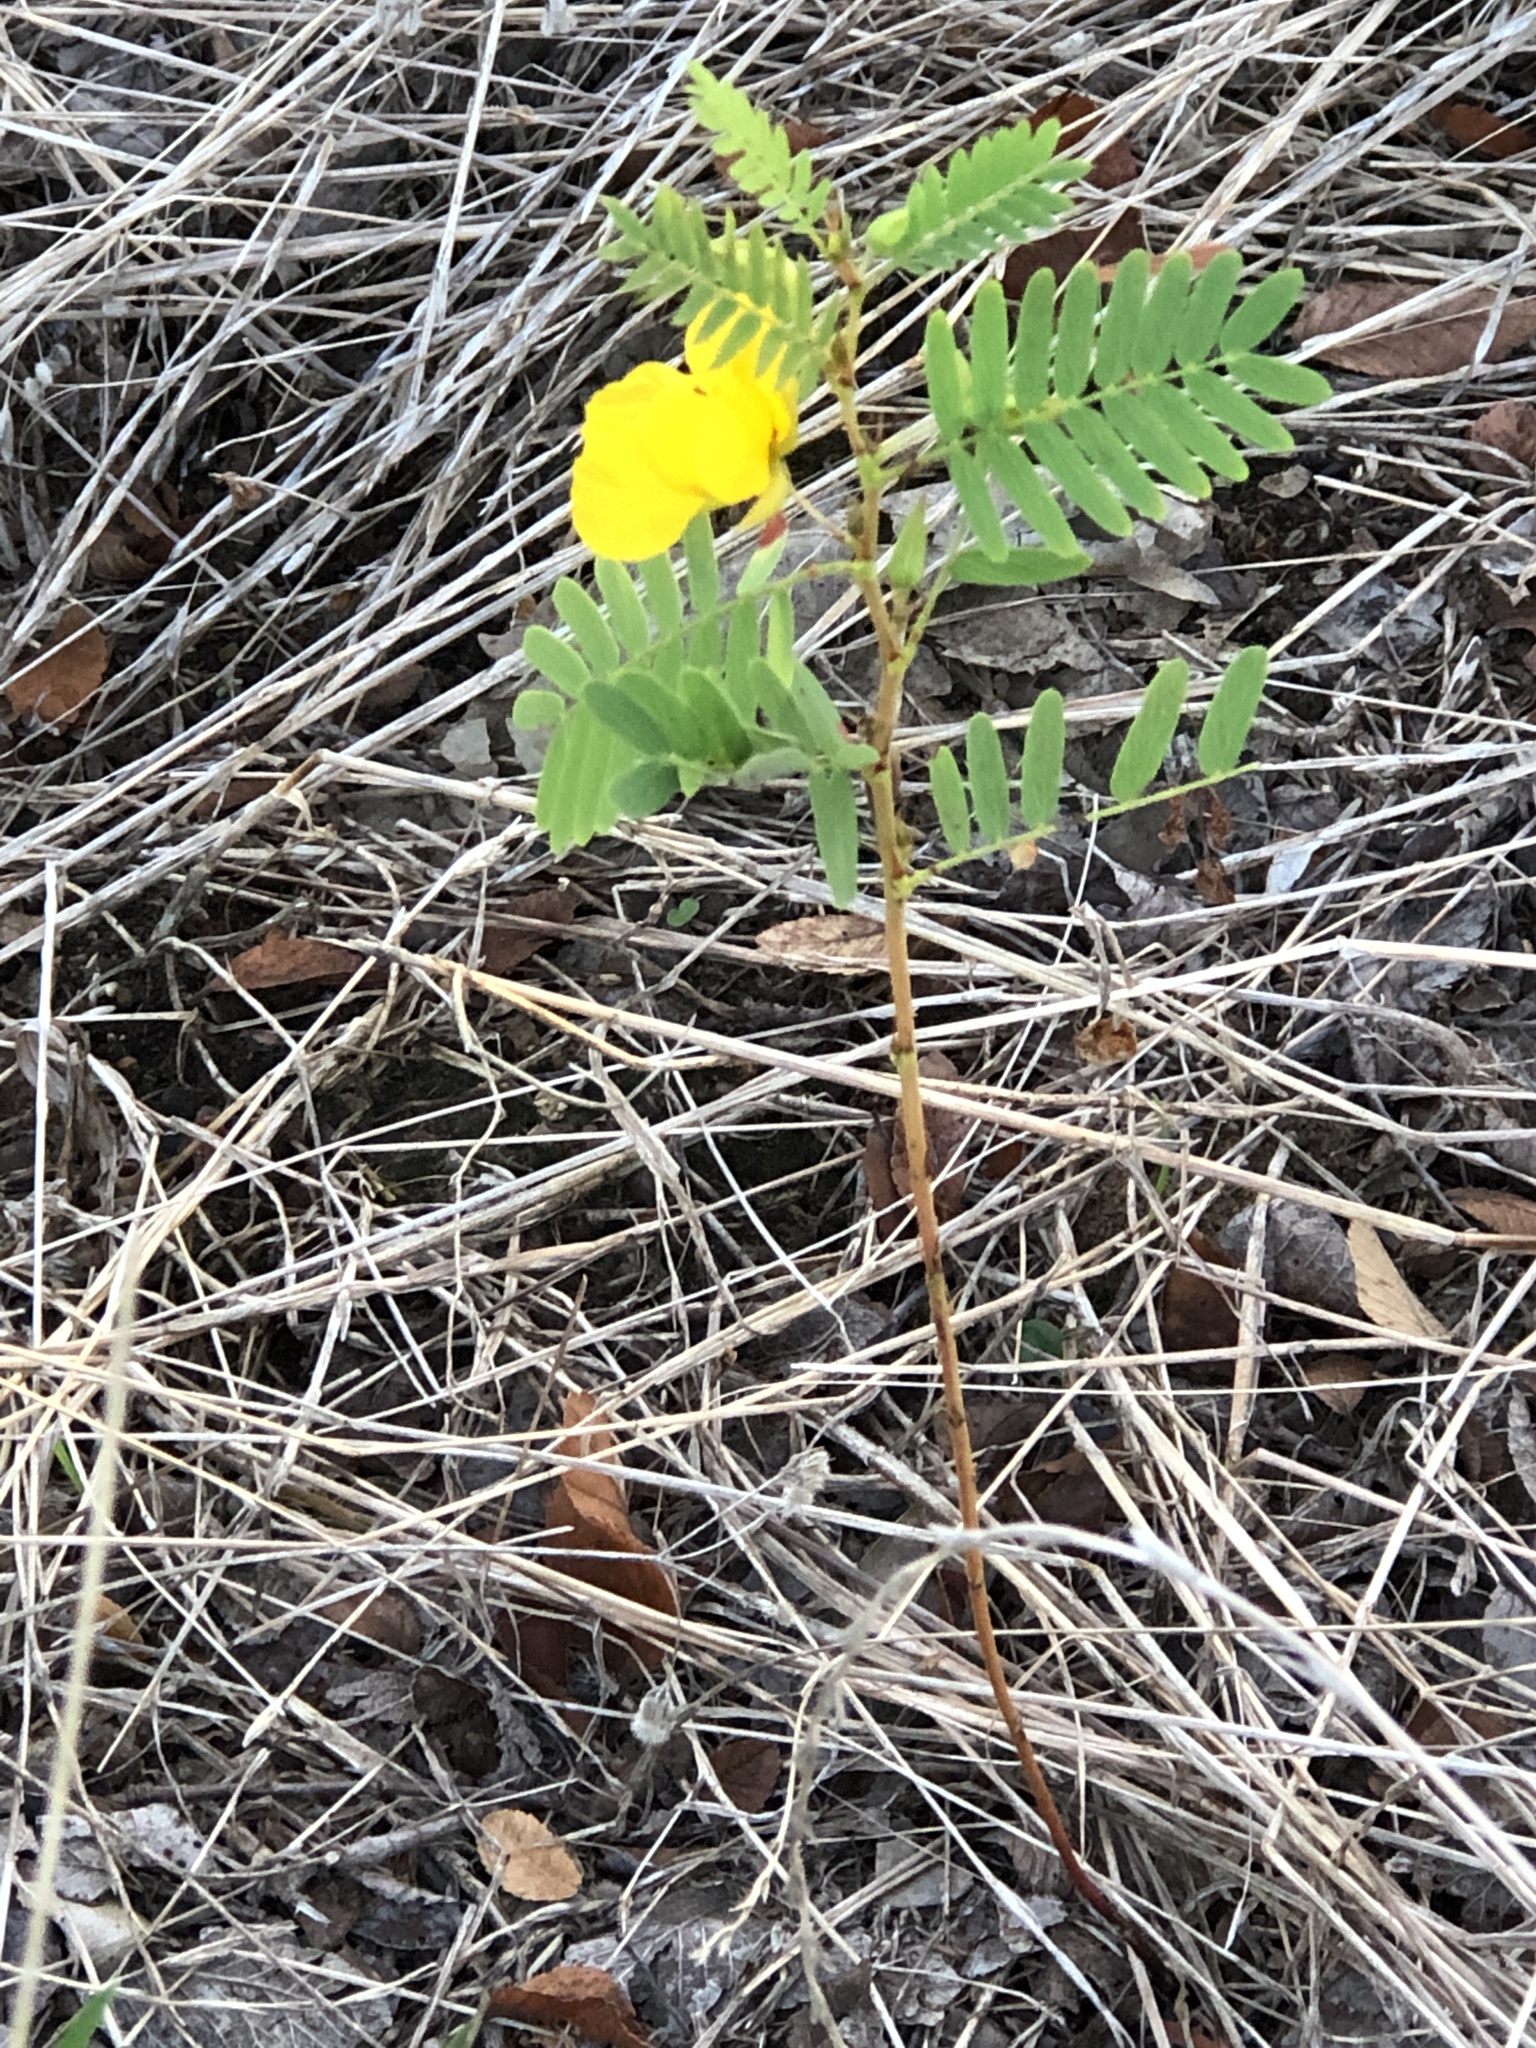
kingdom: Plantae
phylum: Tracheophyta
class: Magnoliopsida
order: Fabales
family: Fabaceae
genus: Chamaecrista
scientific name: Chamaecrista fasciculata
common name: Golden cassia
